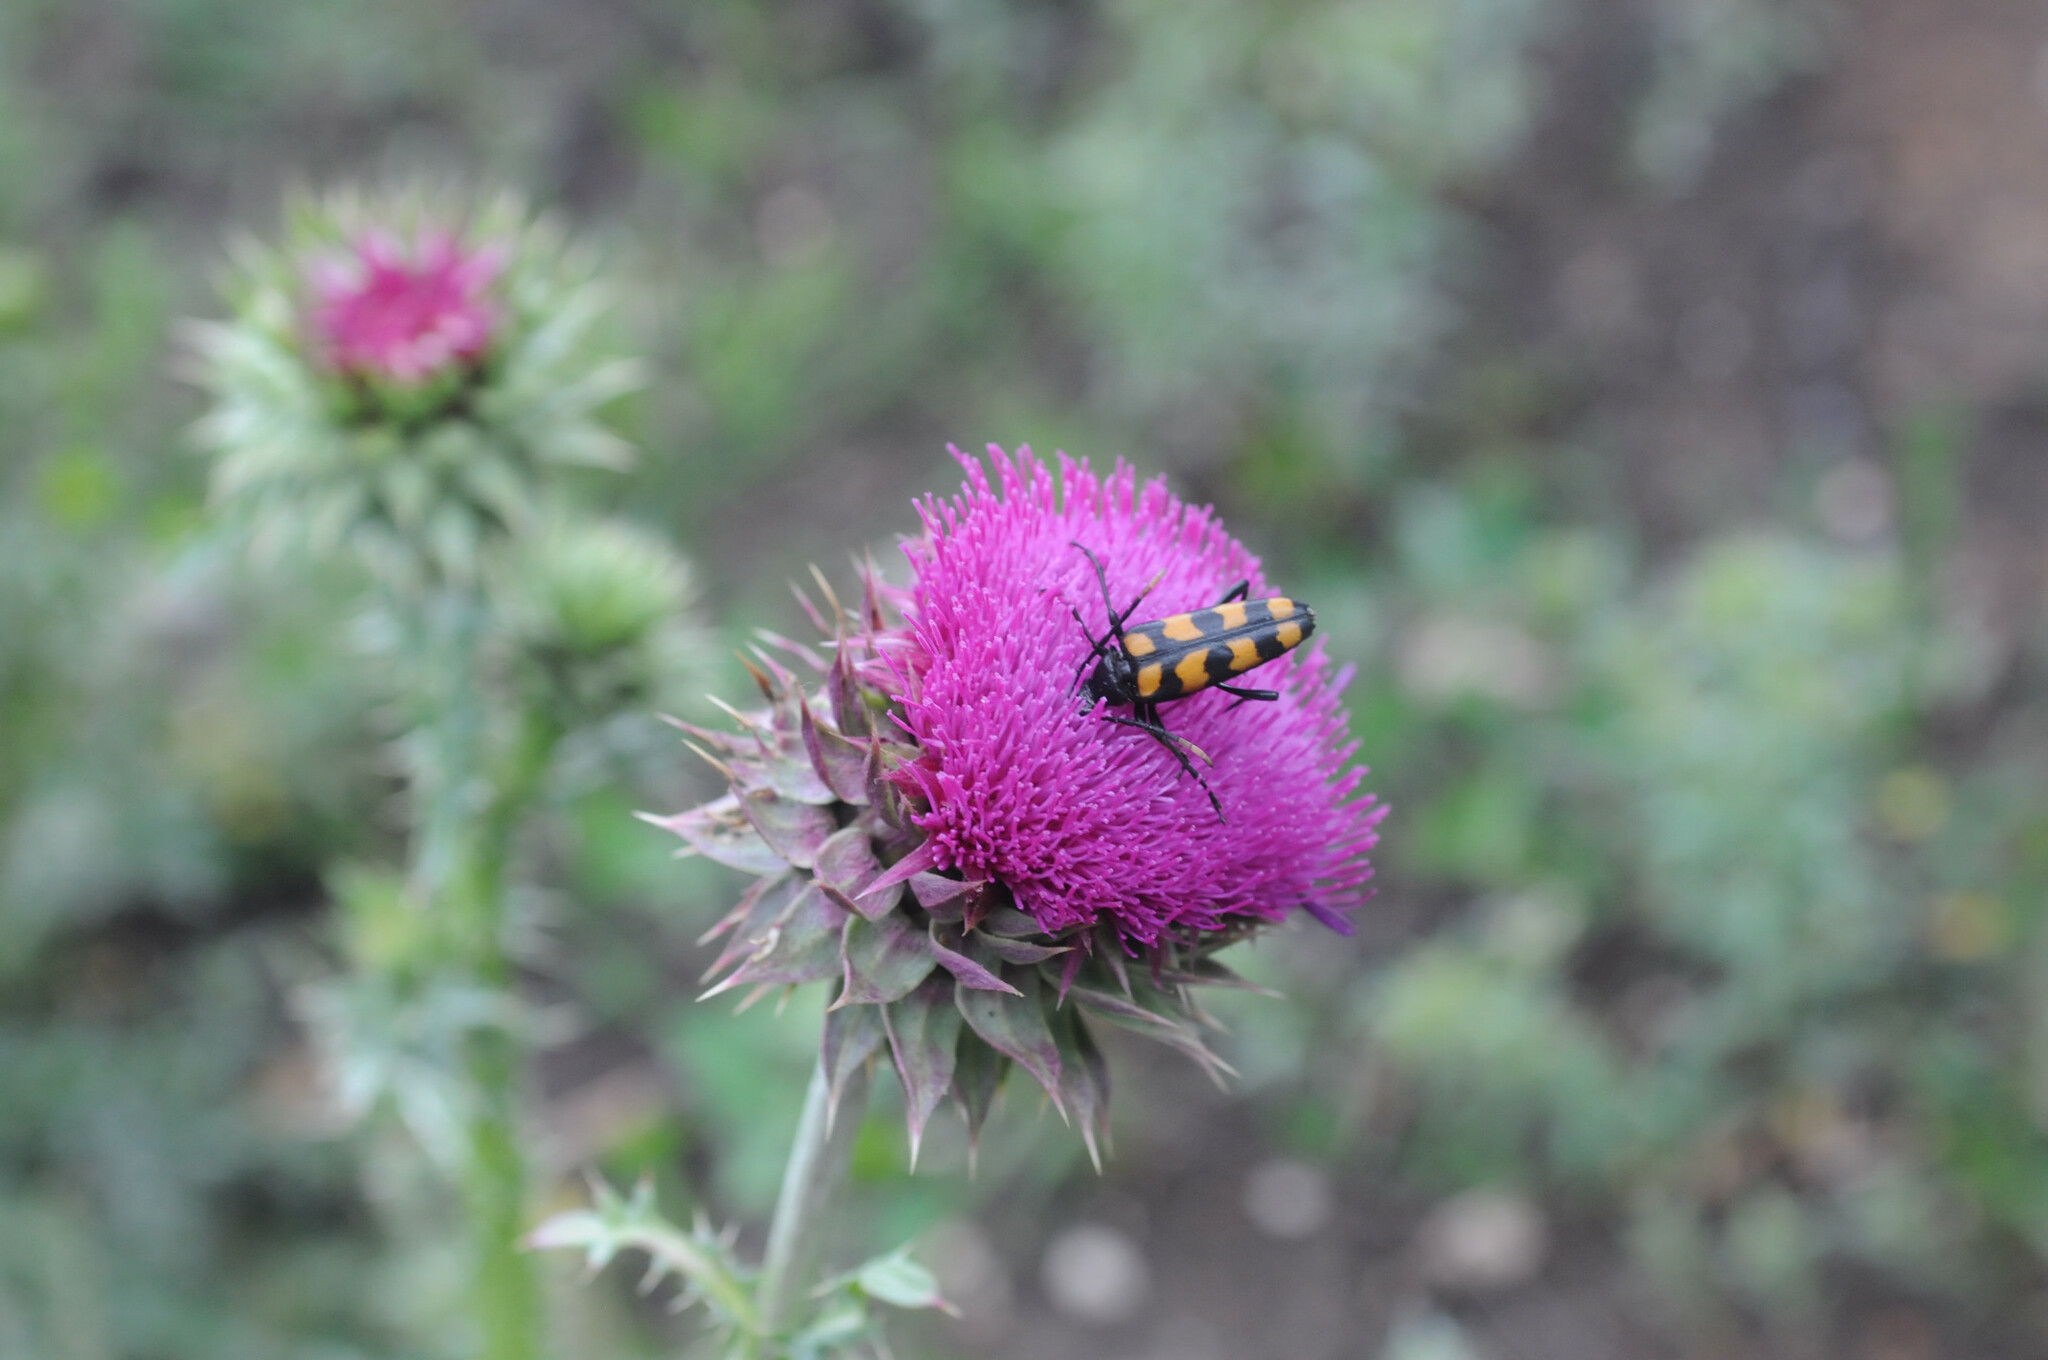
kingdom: Animalia
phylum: Arthropoda
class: Insecta
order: Coleoptera
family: Cerambycidae
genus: Leptura
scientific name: Leptura quadrifasciata
